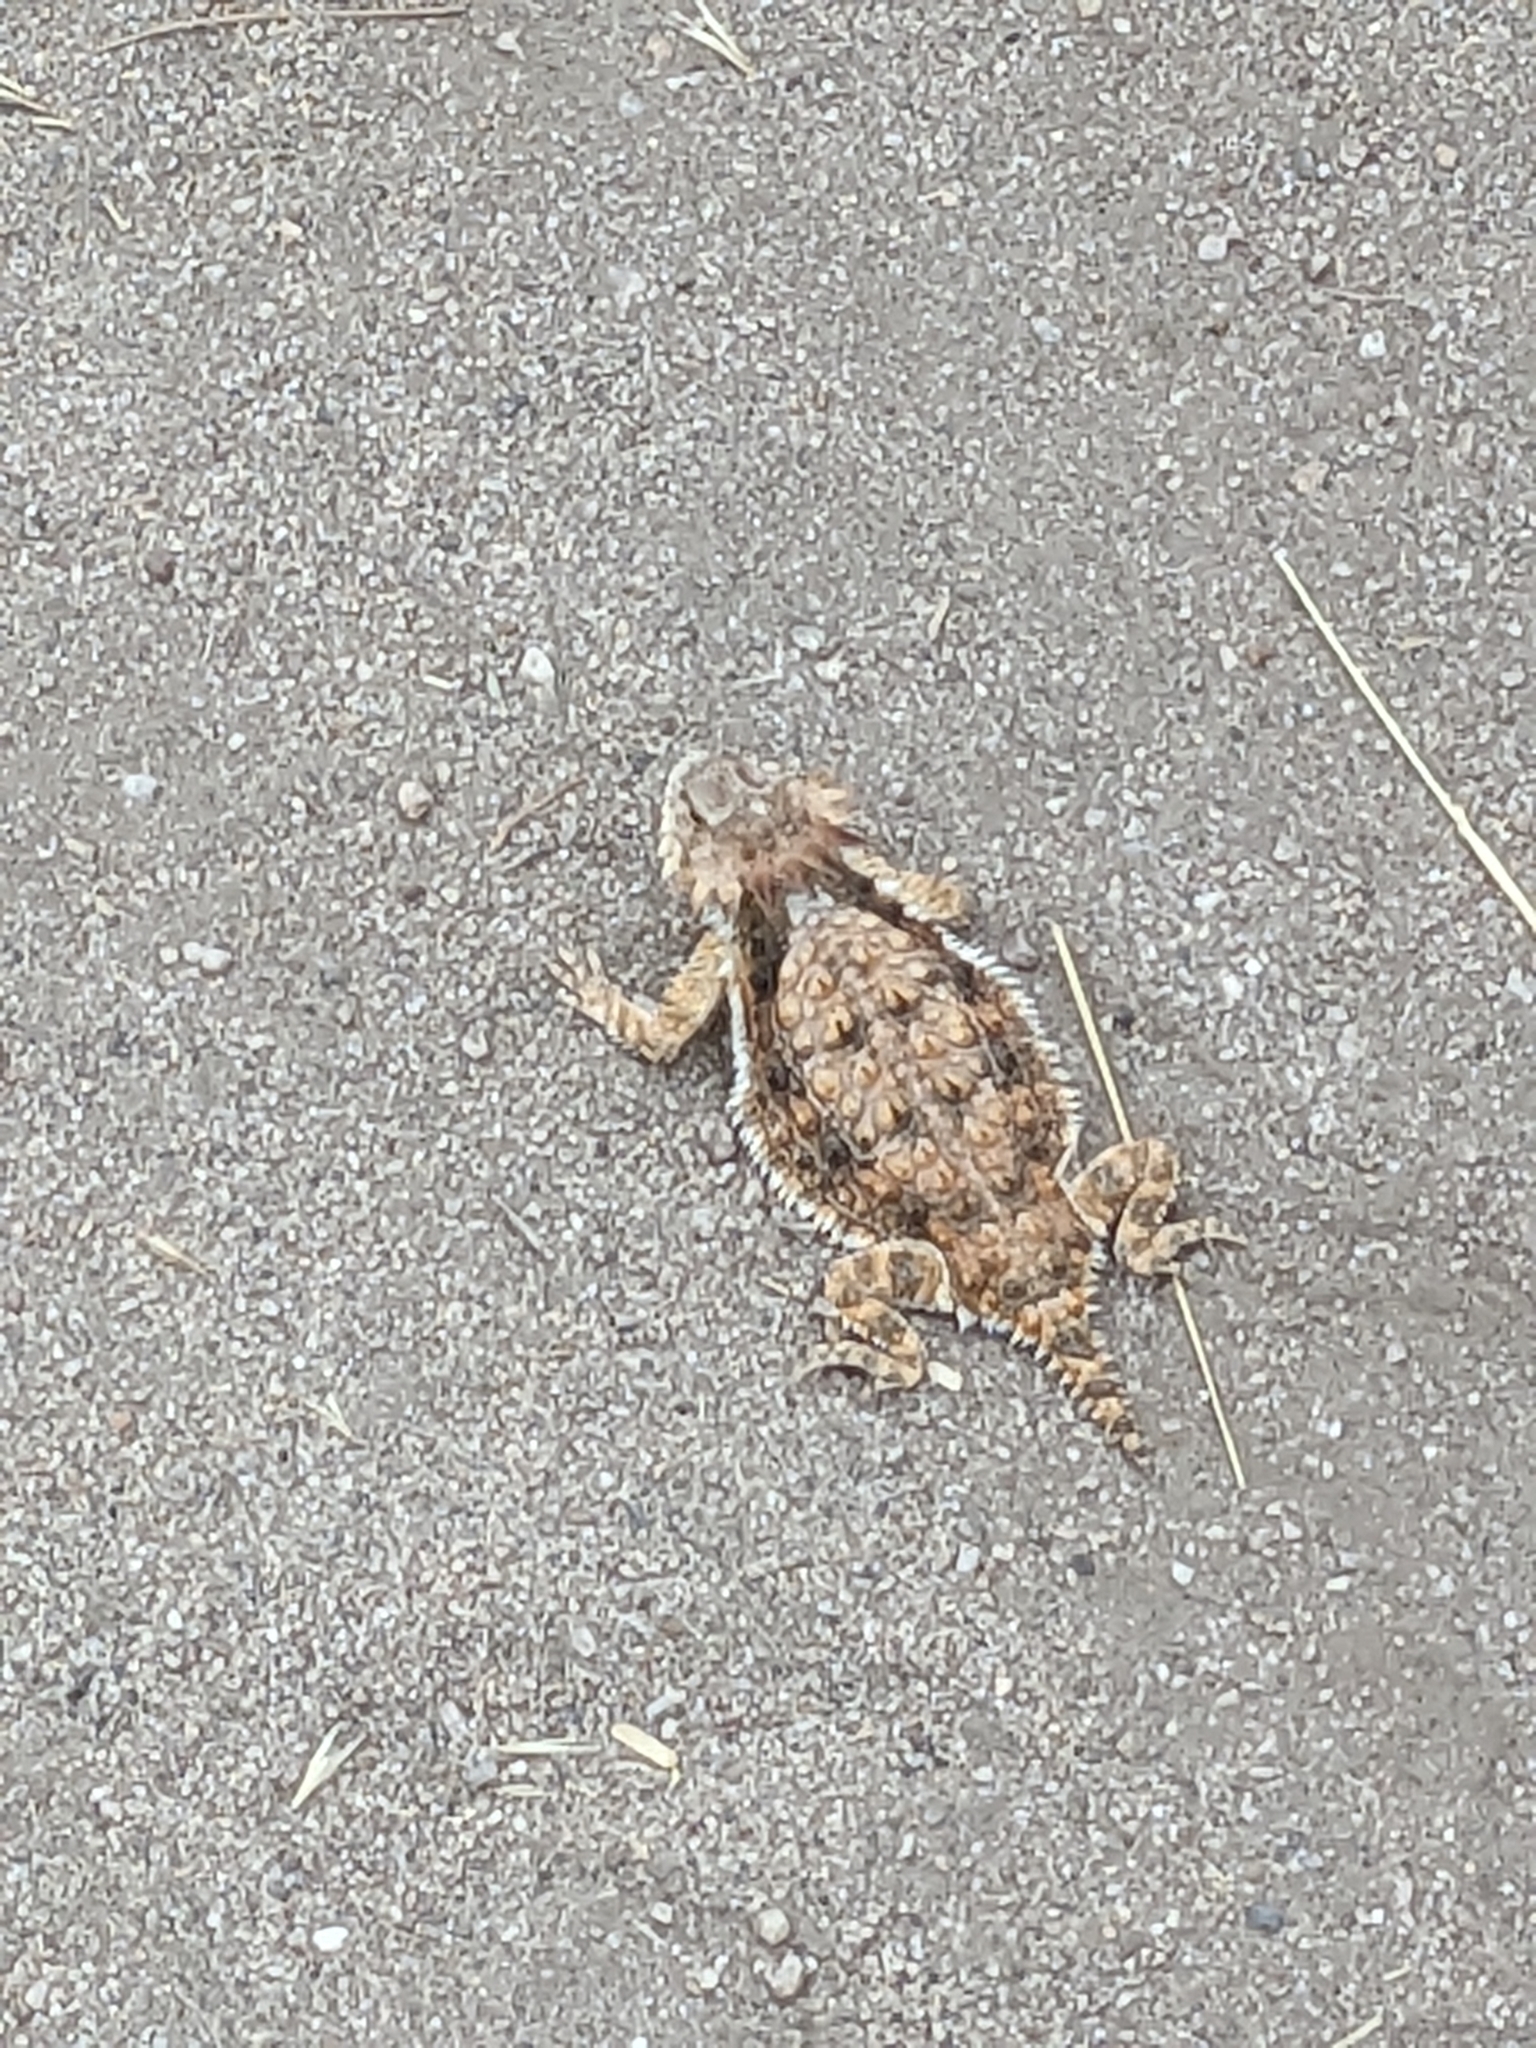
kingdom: Animalia
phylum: Chordata
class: Squamata
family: Phrynosomatidae
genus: Phrynosoma
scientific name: Phrynosoma solare
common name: Regal horned lizard
